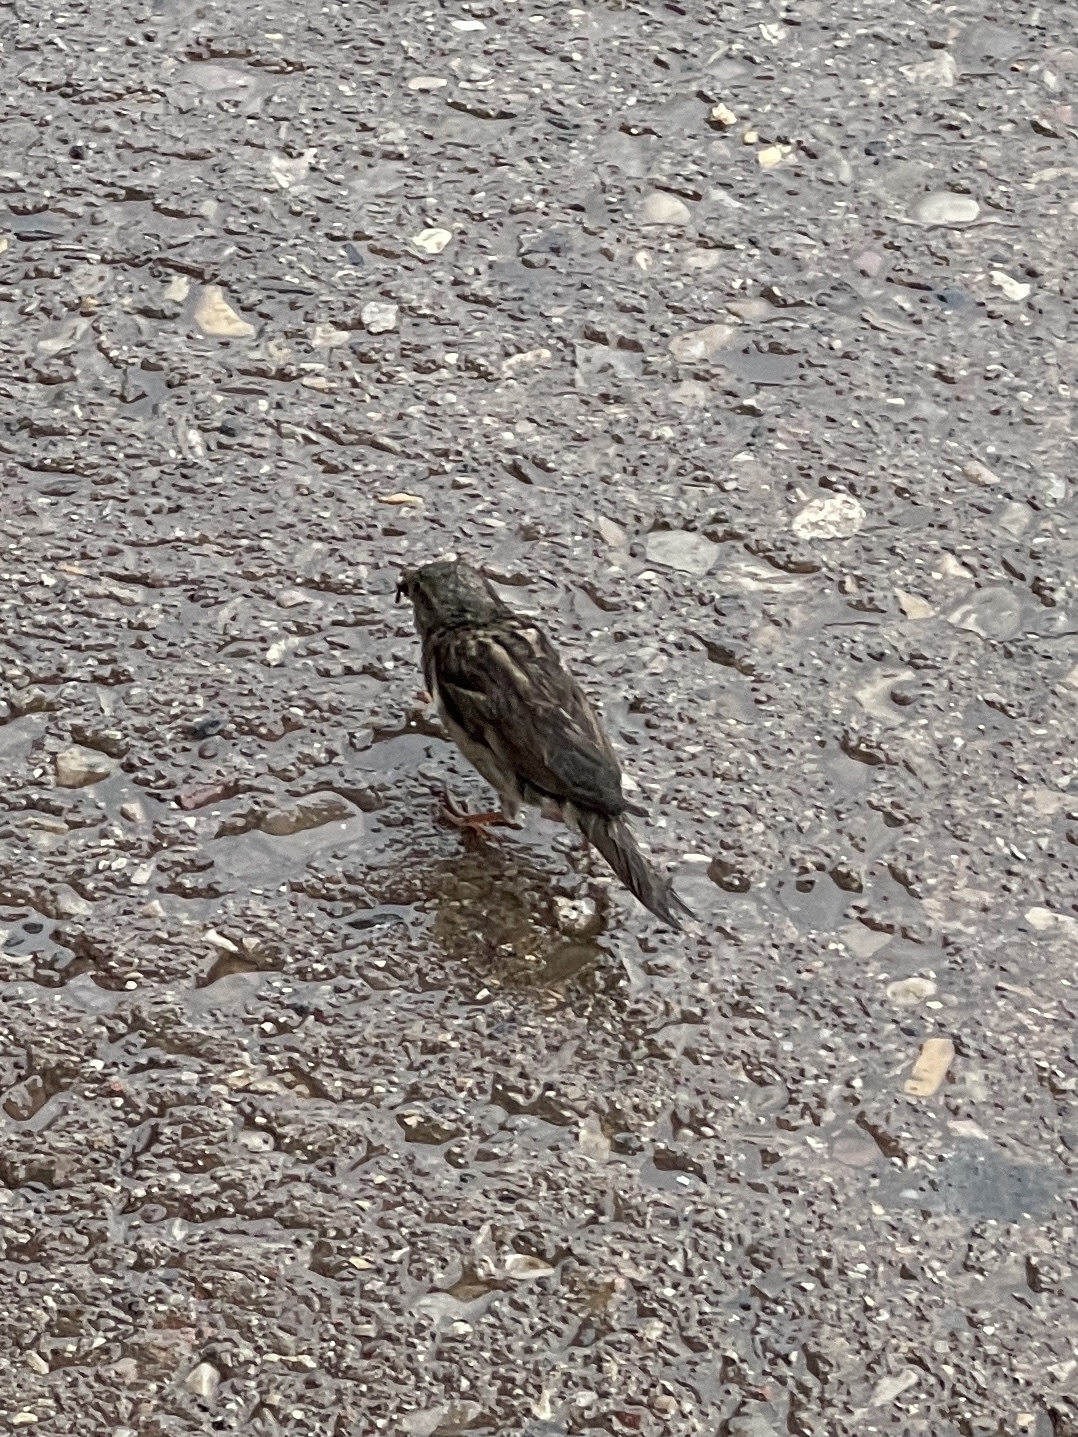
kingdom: Animalia
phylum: Chordata
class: Aves
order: Passeriformes
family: Passeridae
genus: Passer
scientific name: Passer domesticus
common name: House sparrow
